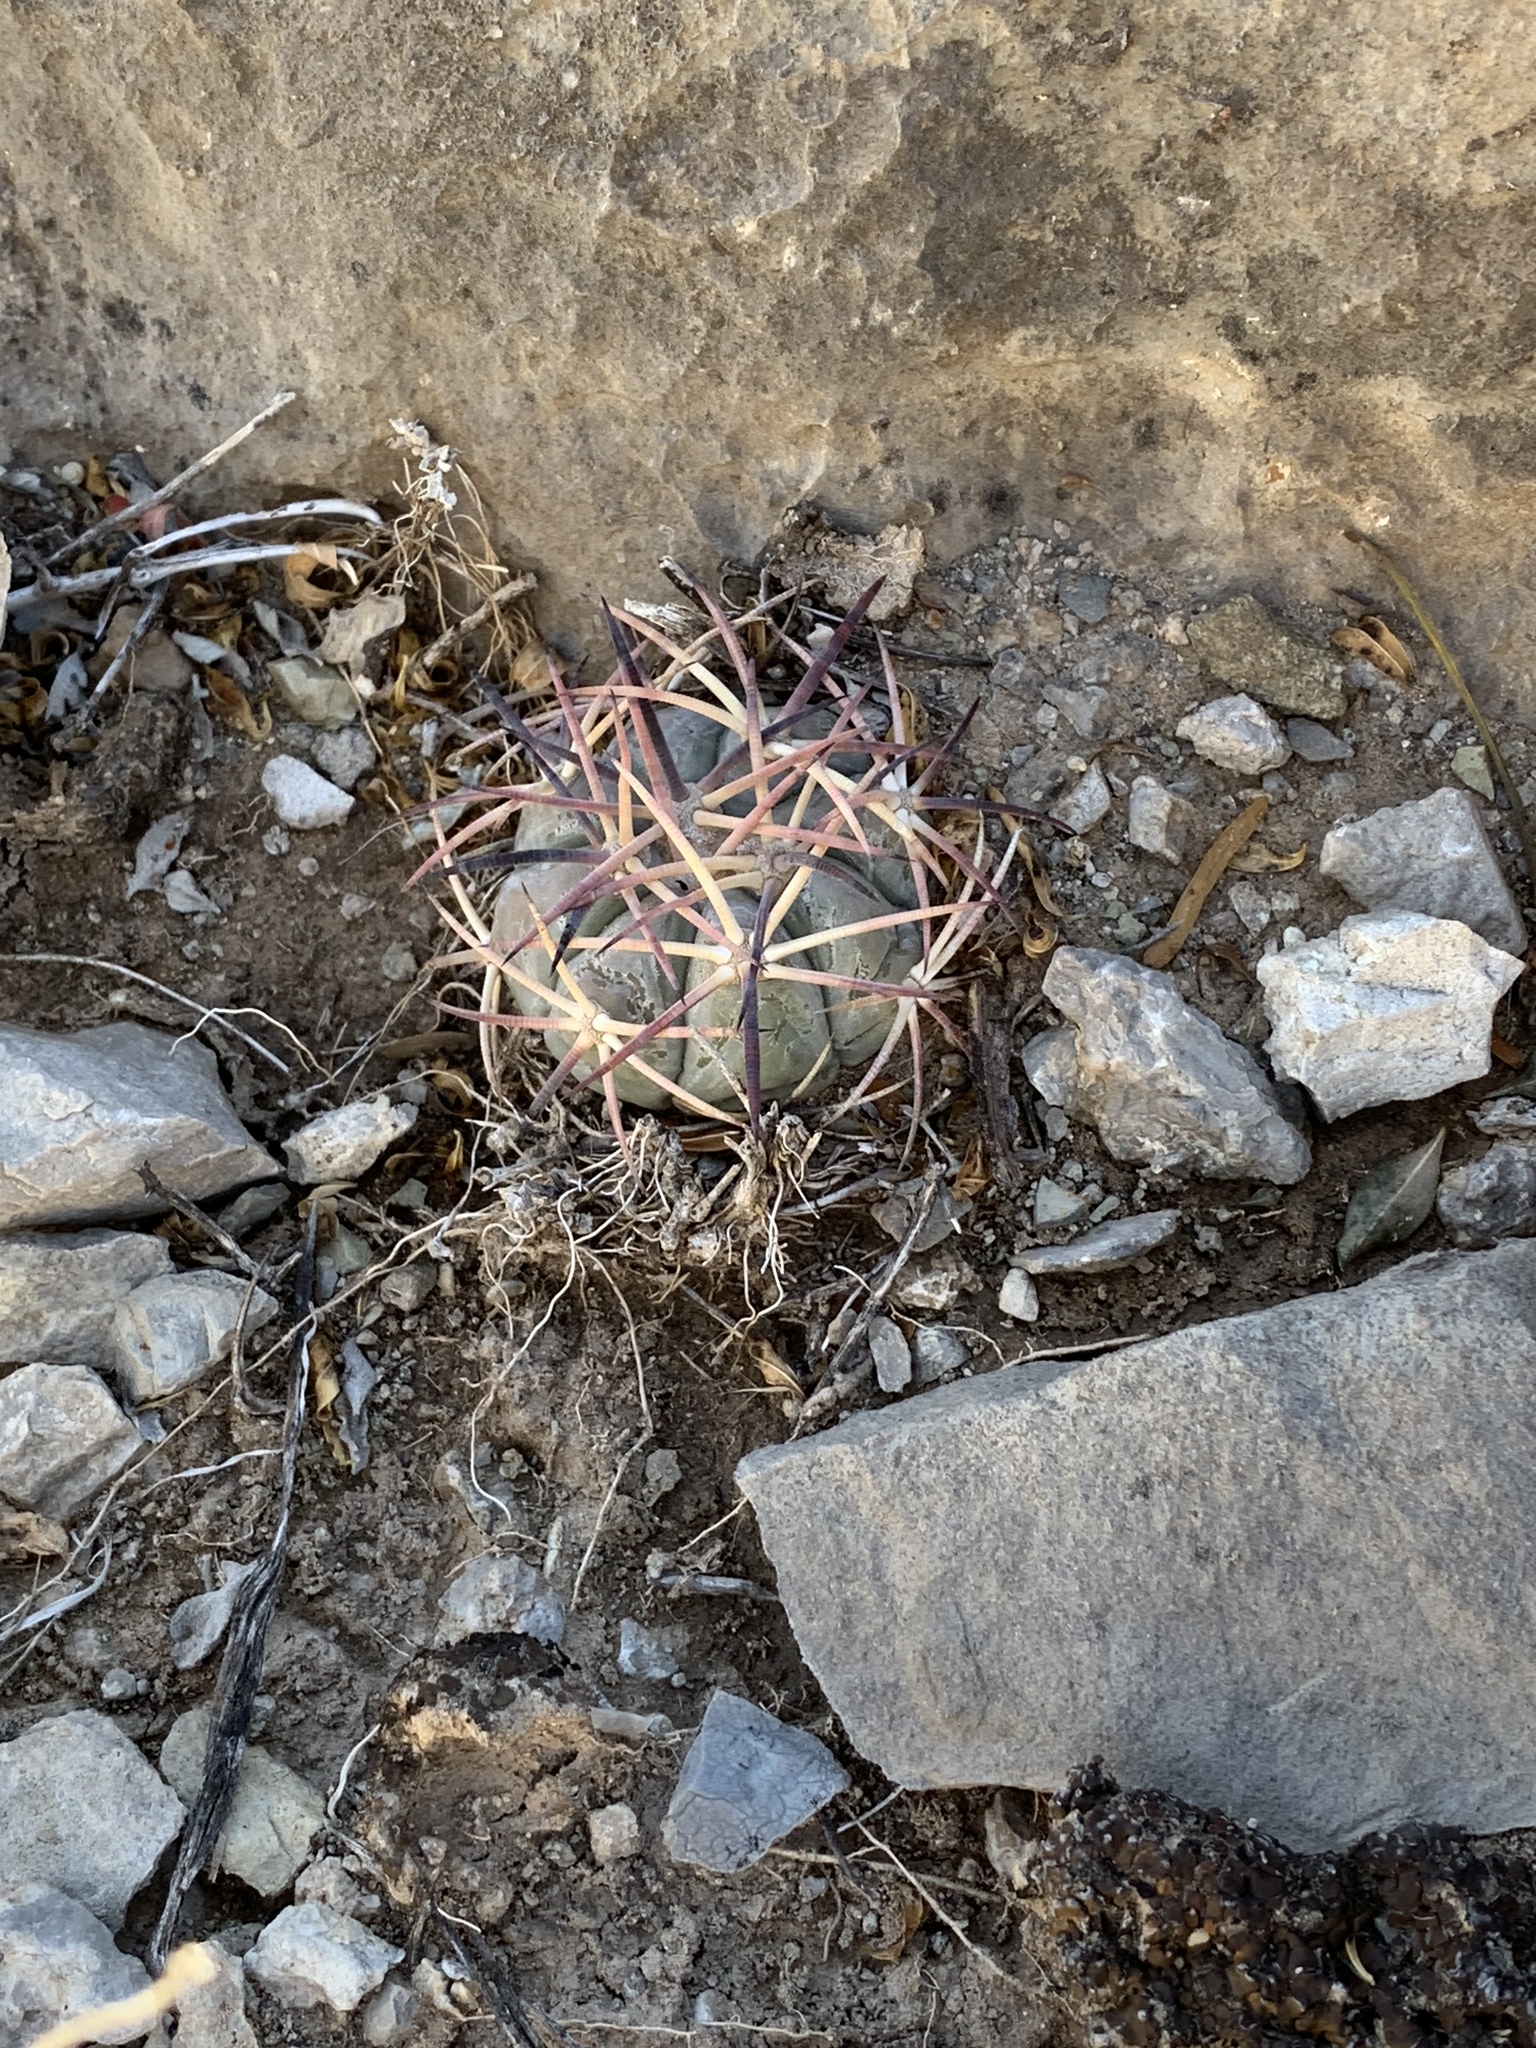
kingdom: Plantae
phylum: Tracheophyta
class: Magnoliopsida
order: Caryophyllales
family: Cactaceae
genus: Echinocactus
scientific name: Echinocactus horizonthalonius
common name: Devilshead
